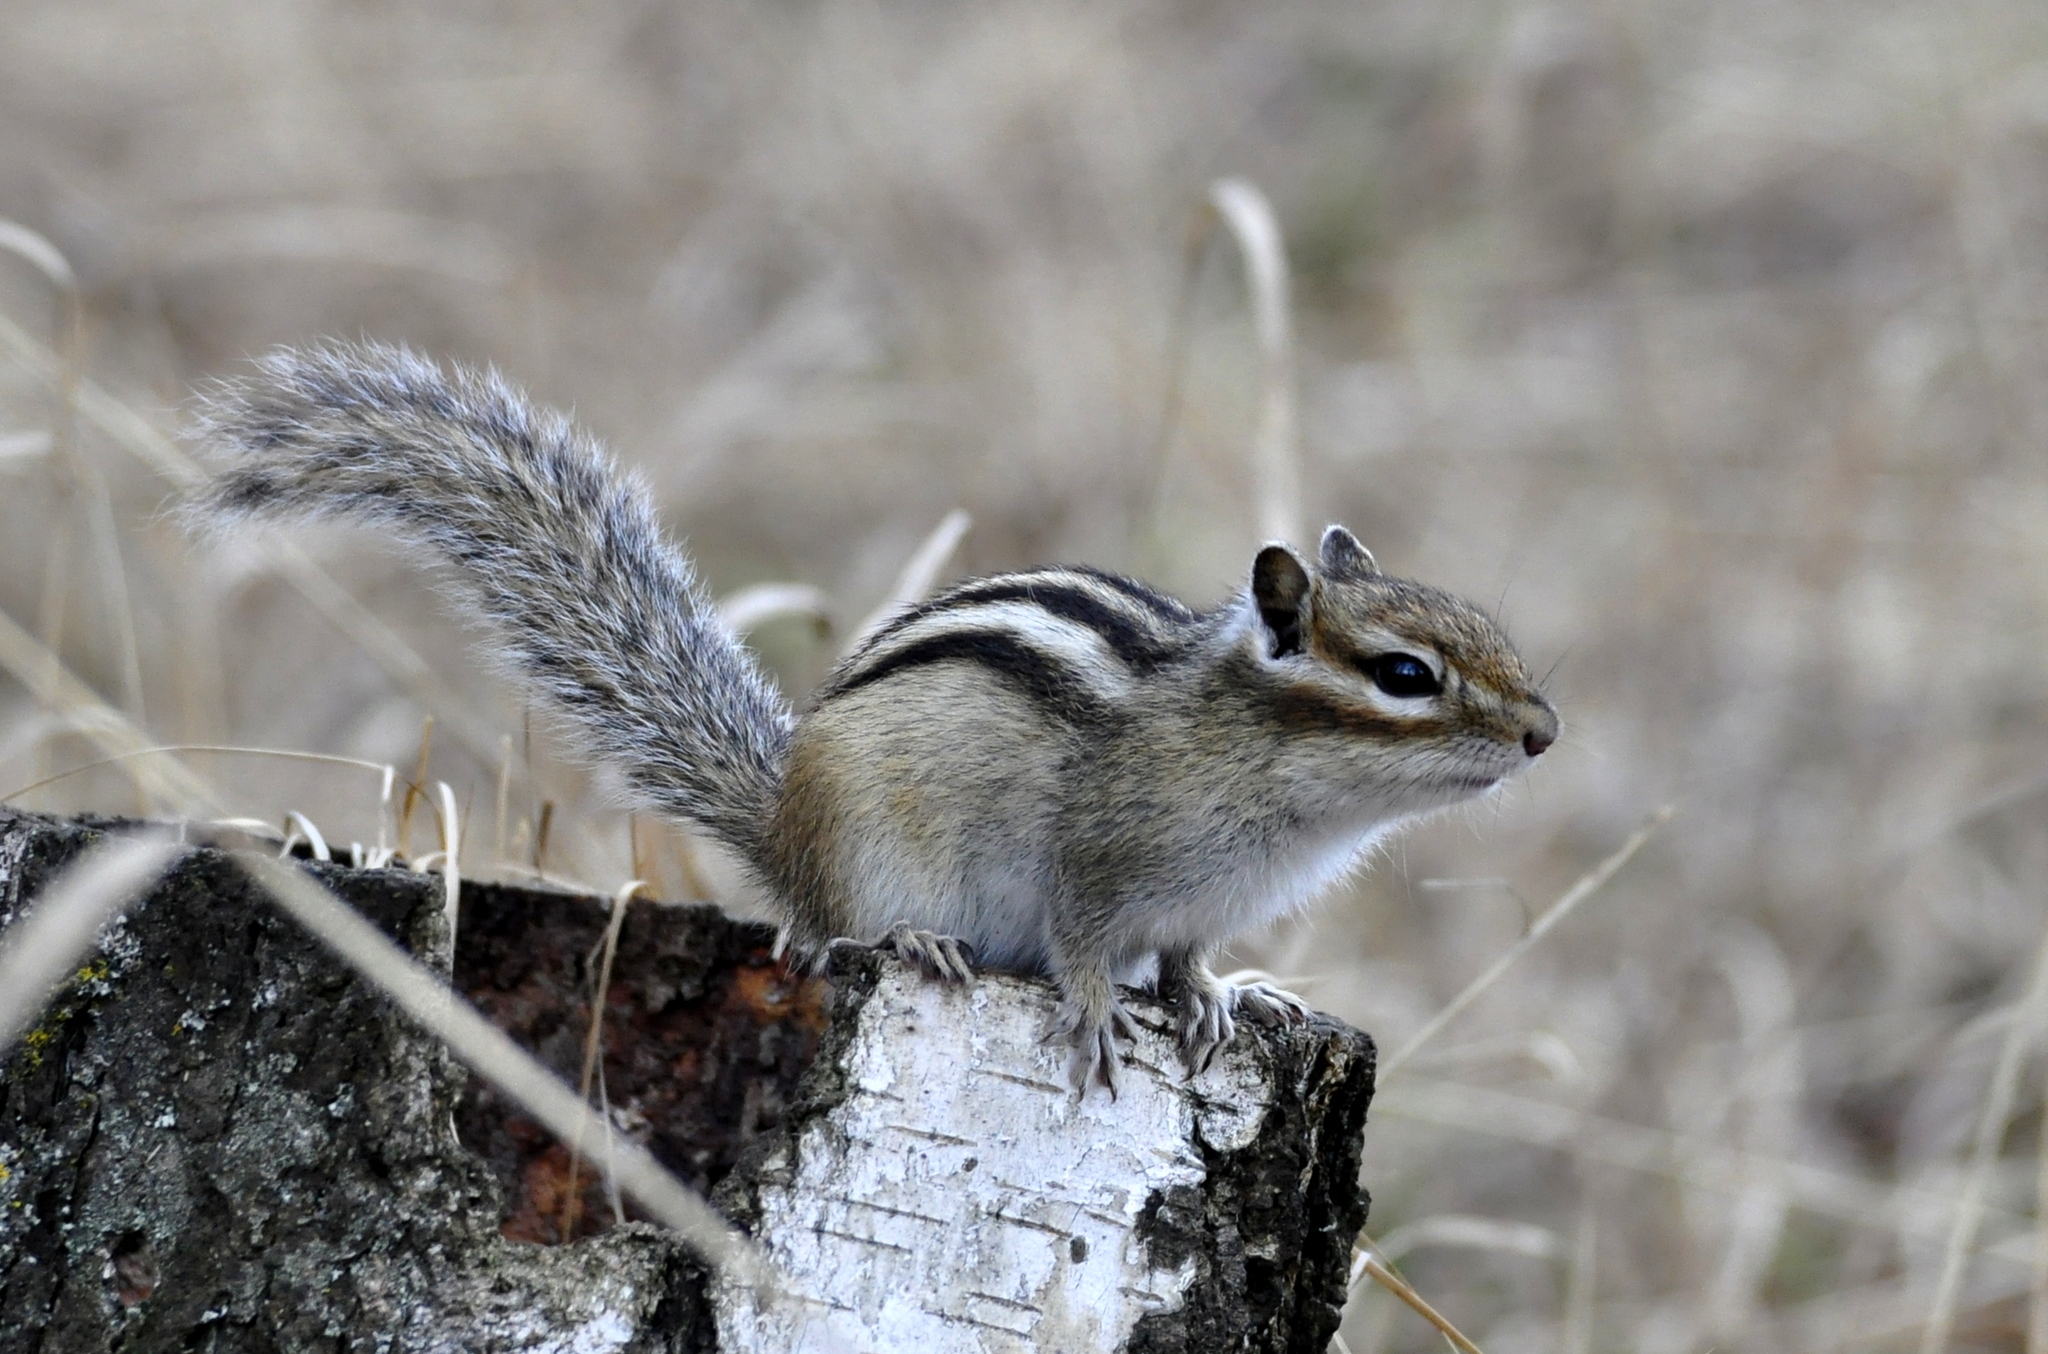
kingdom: Animalia
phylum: Chordata
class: Mammalia
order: Rodentia
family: Sciuridae
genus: Tamias
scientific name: Tamias sibiricus
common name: Siberian chipmunk
